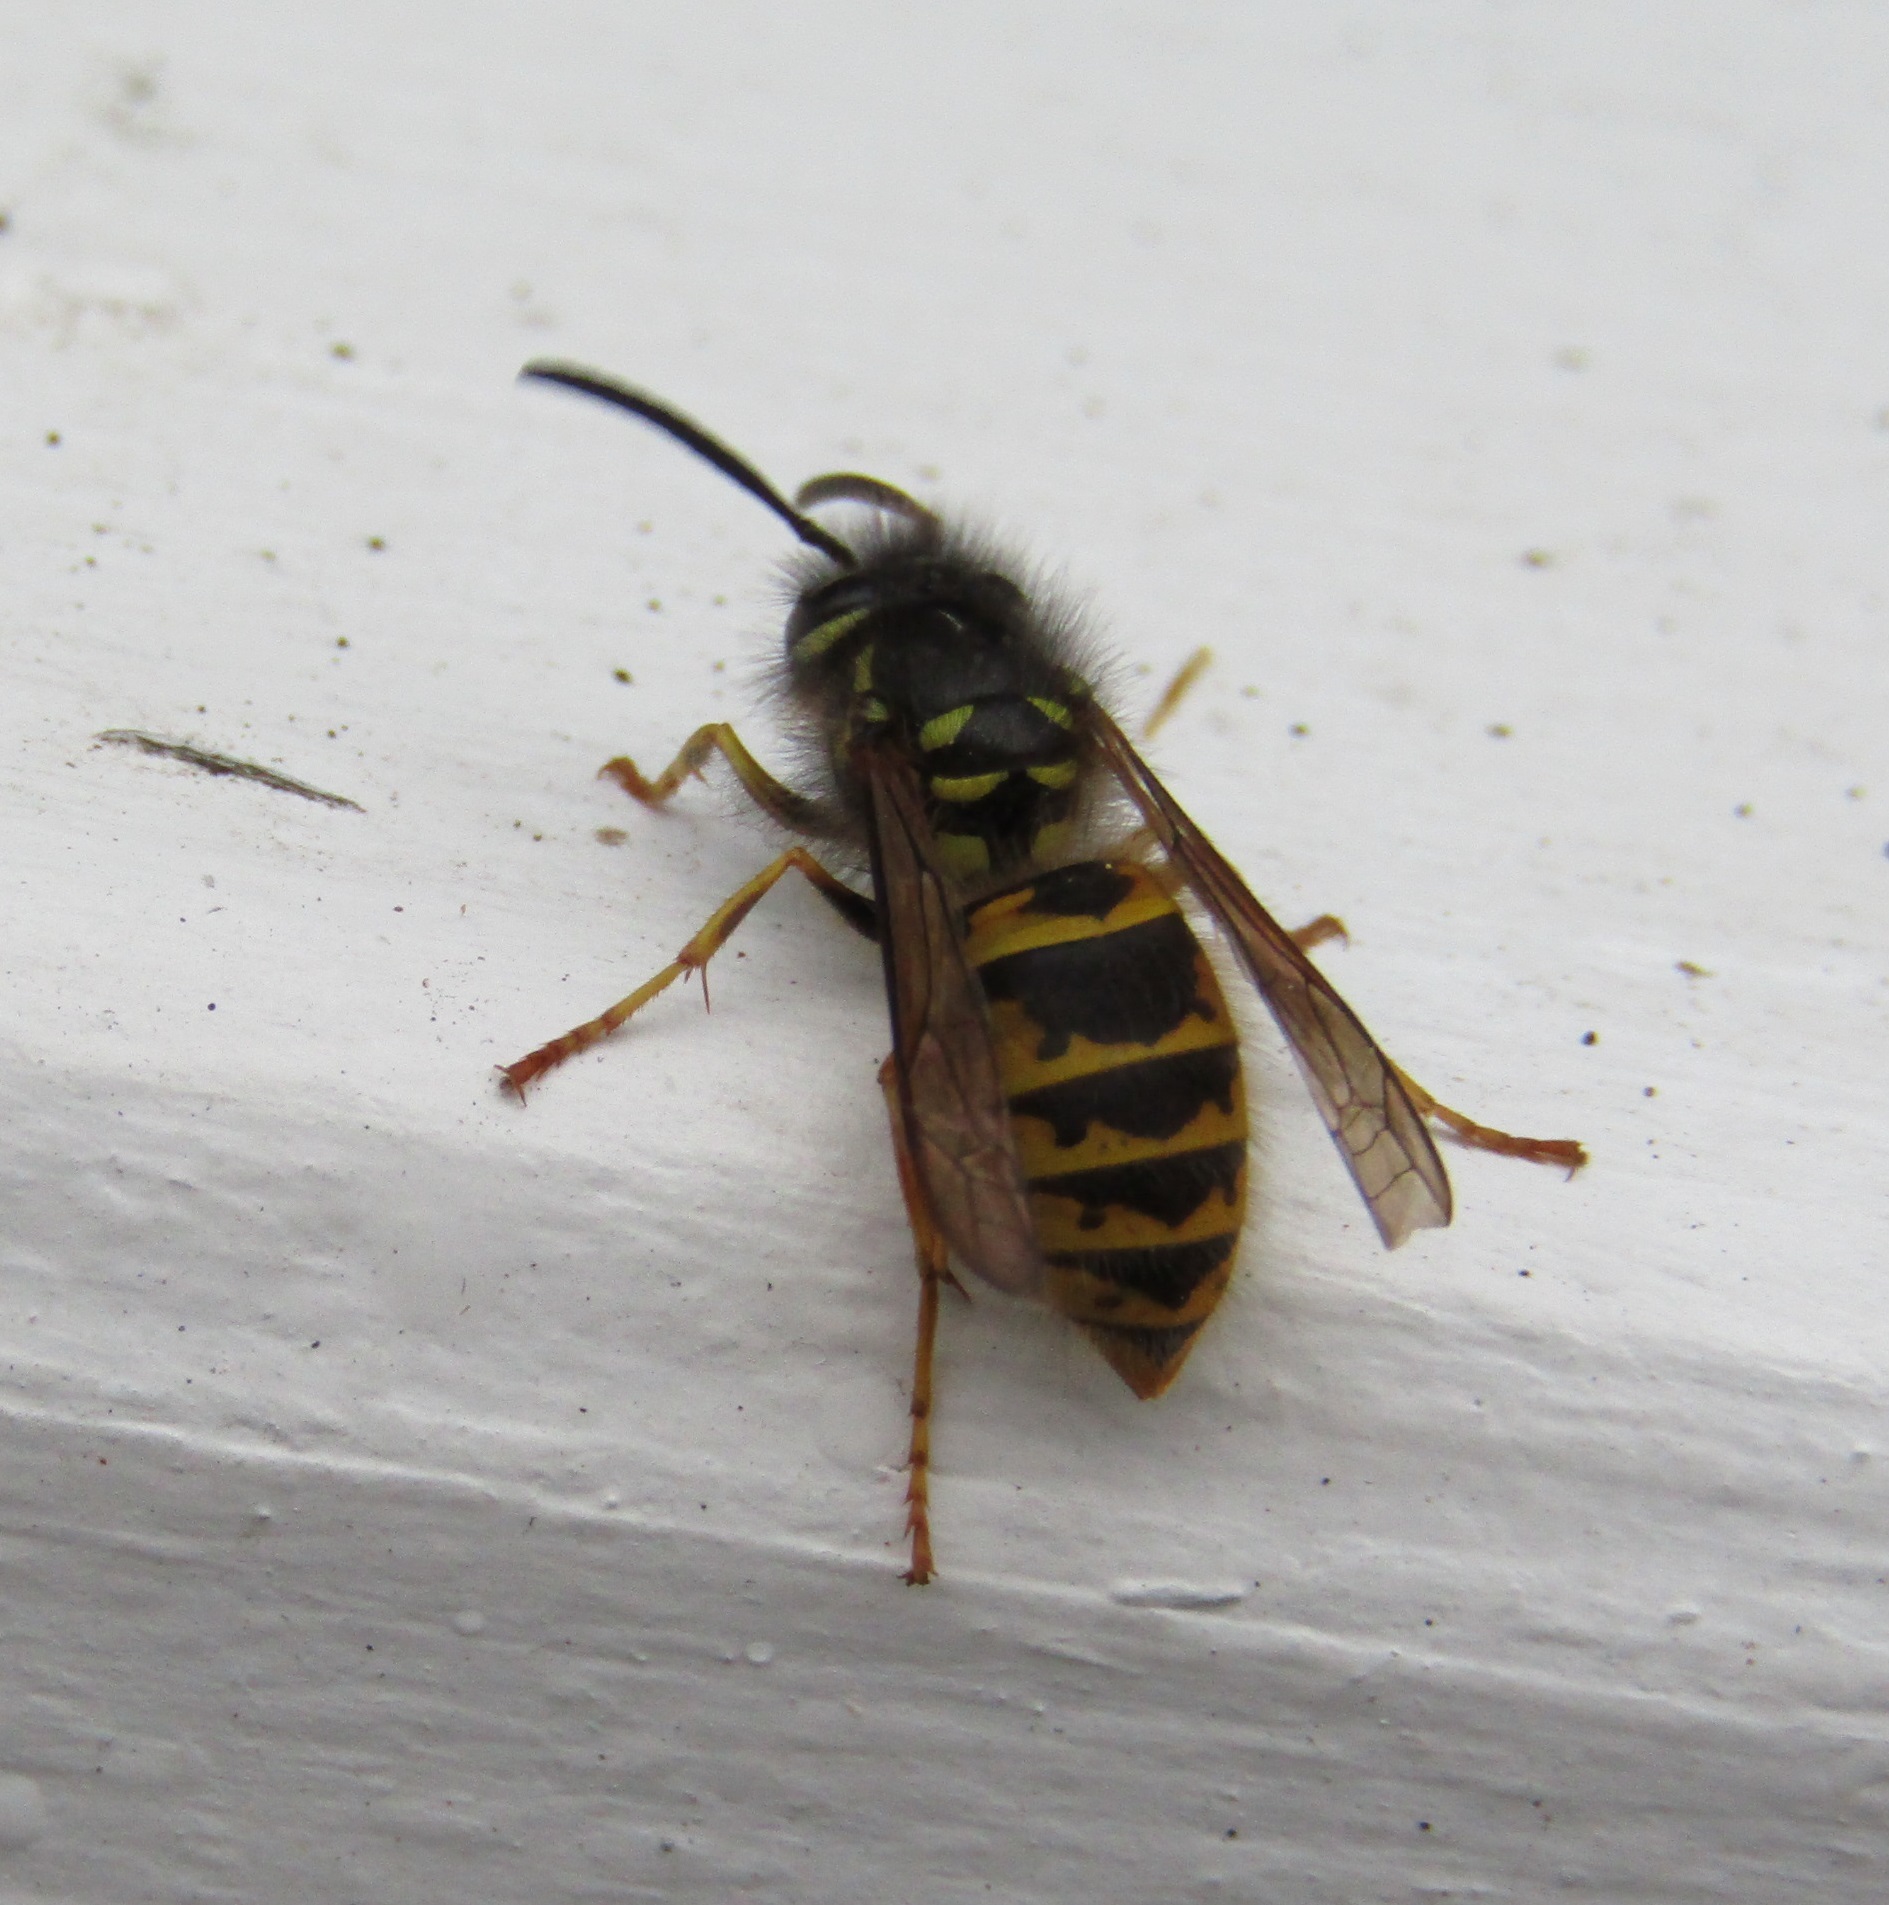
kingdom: Animalia
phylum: Arthropoda
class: Insecta
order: Hymenoptera
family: Vespidae
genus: Vespula
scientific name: Vespula vulgaris
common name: Common wasp
